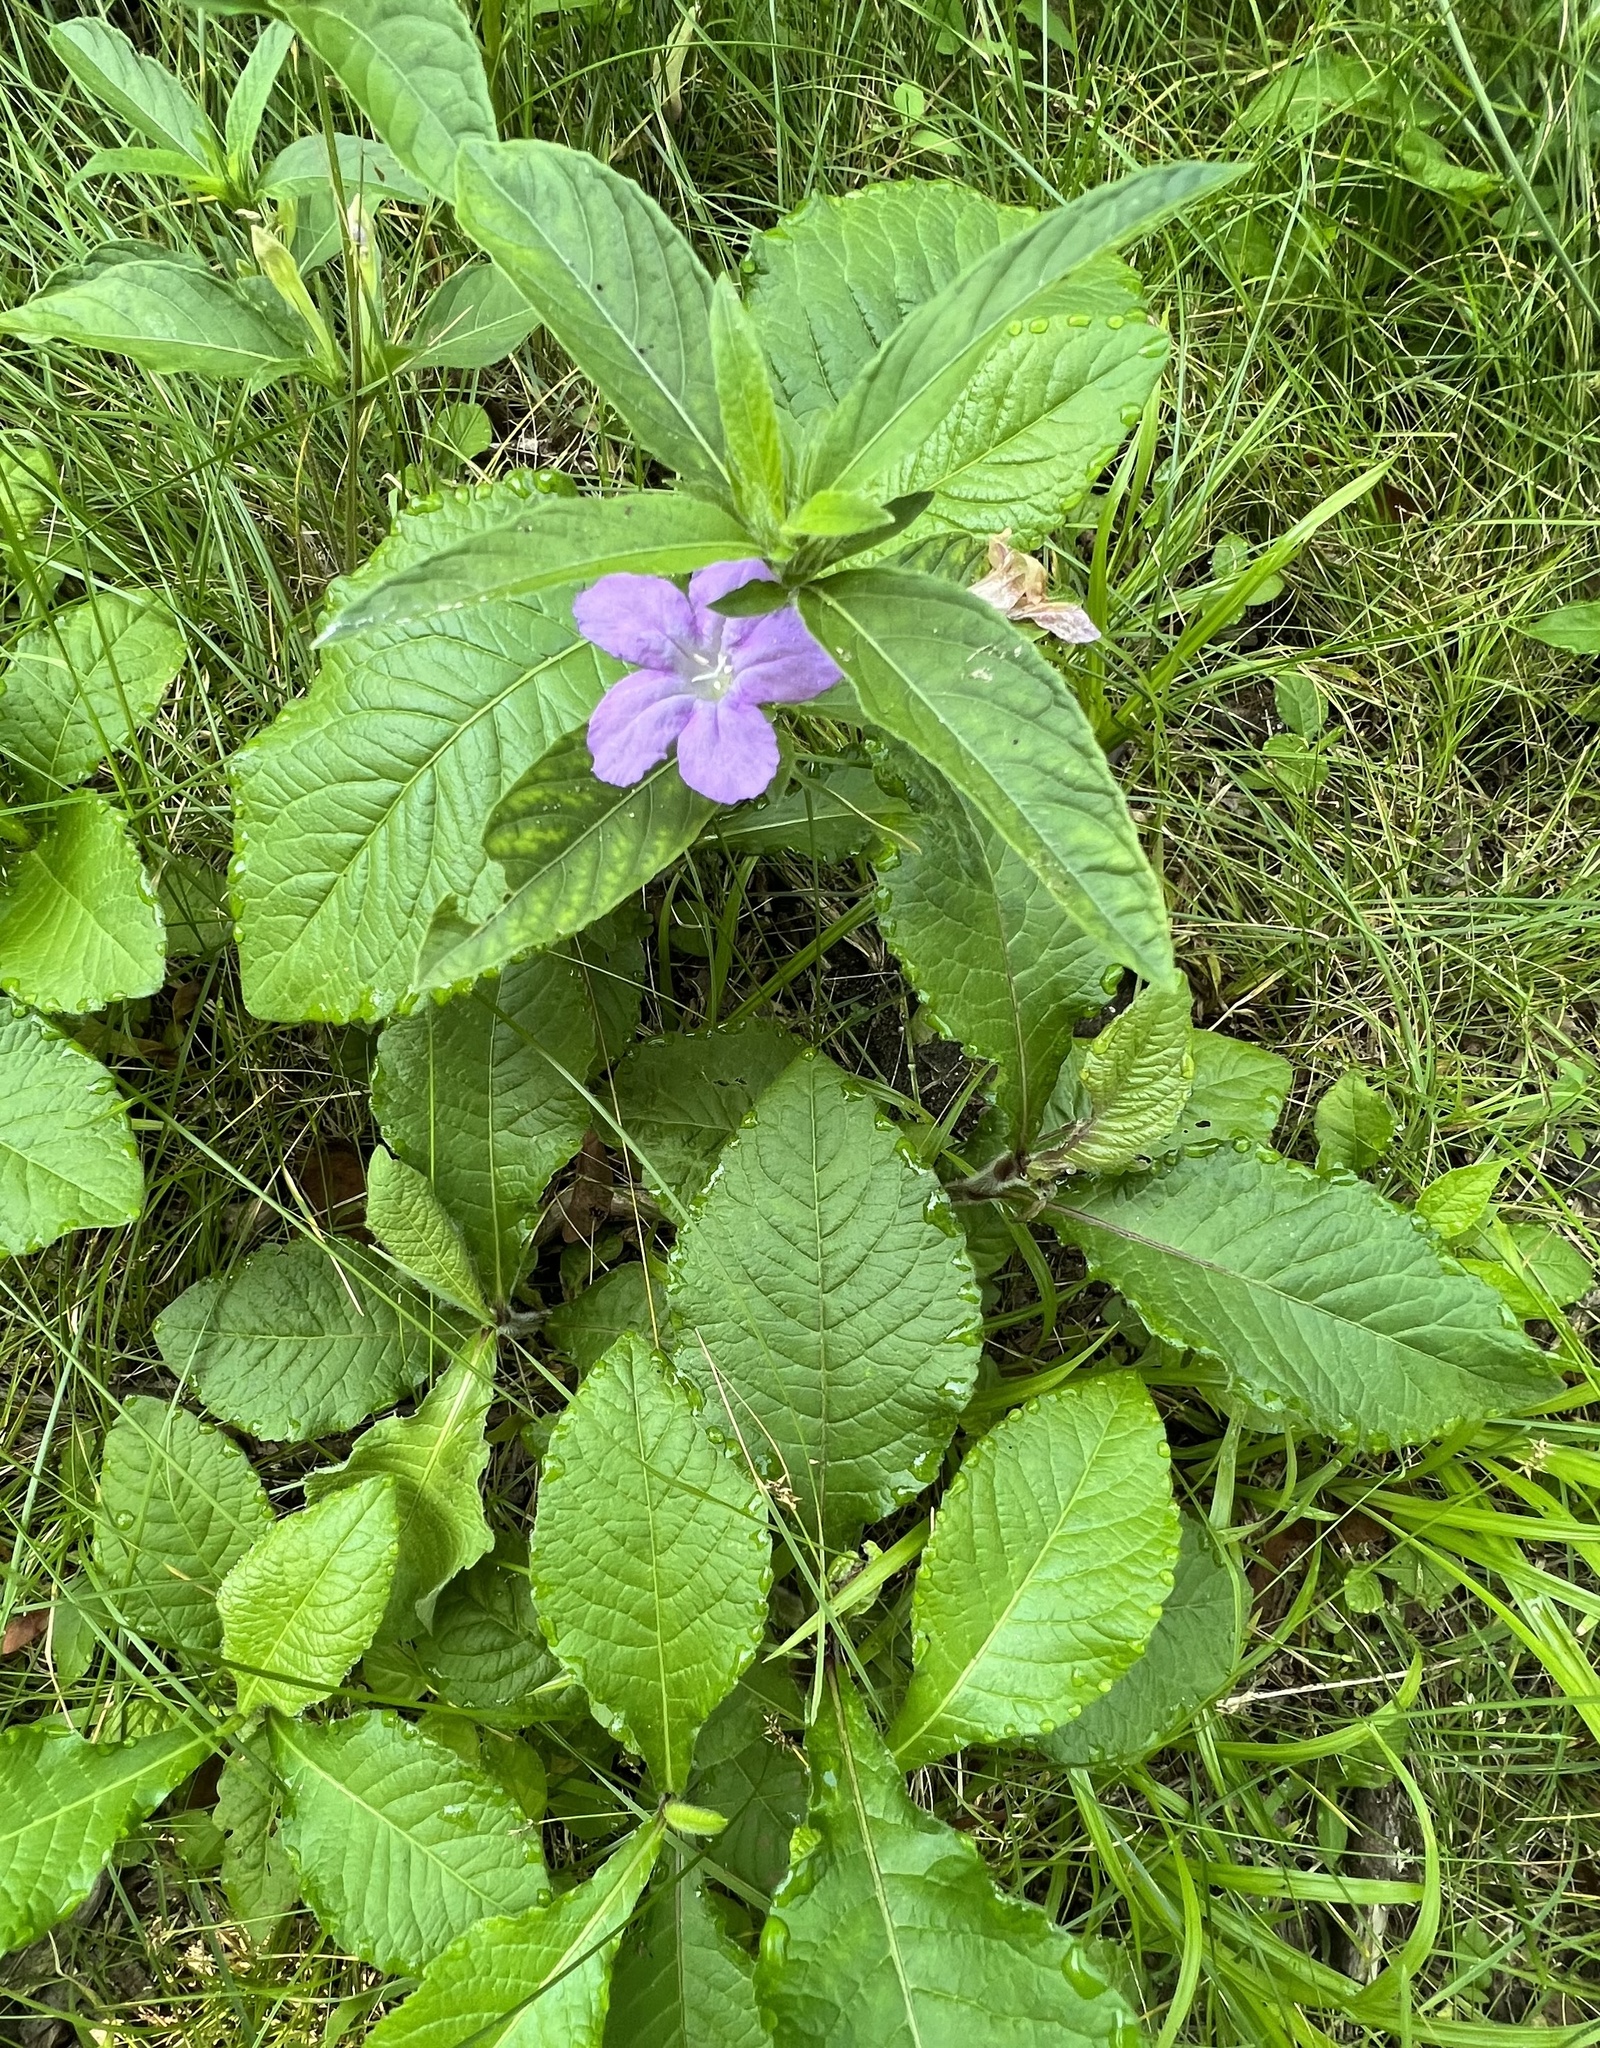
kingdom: Plantae
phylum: Tracheophyta
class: Magnoliopsida
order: Lamiales
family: Acanthaceae
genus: Ruellia
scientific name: Ruellia caroliniensis
